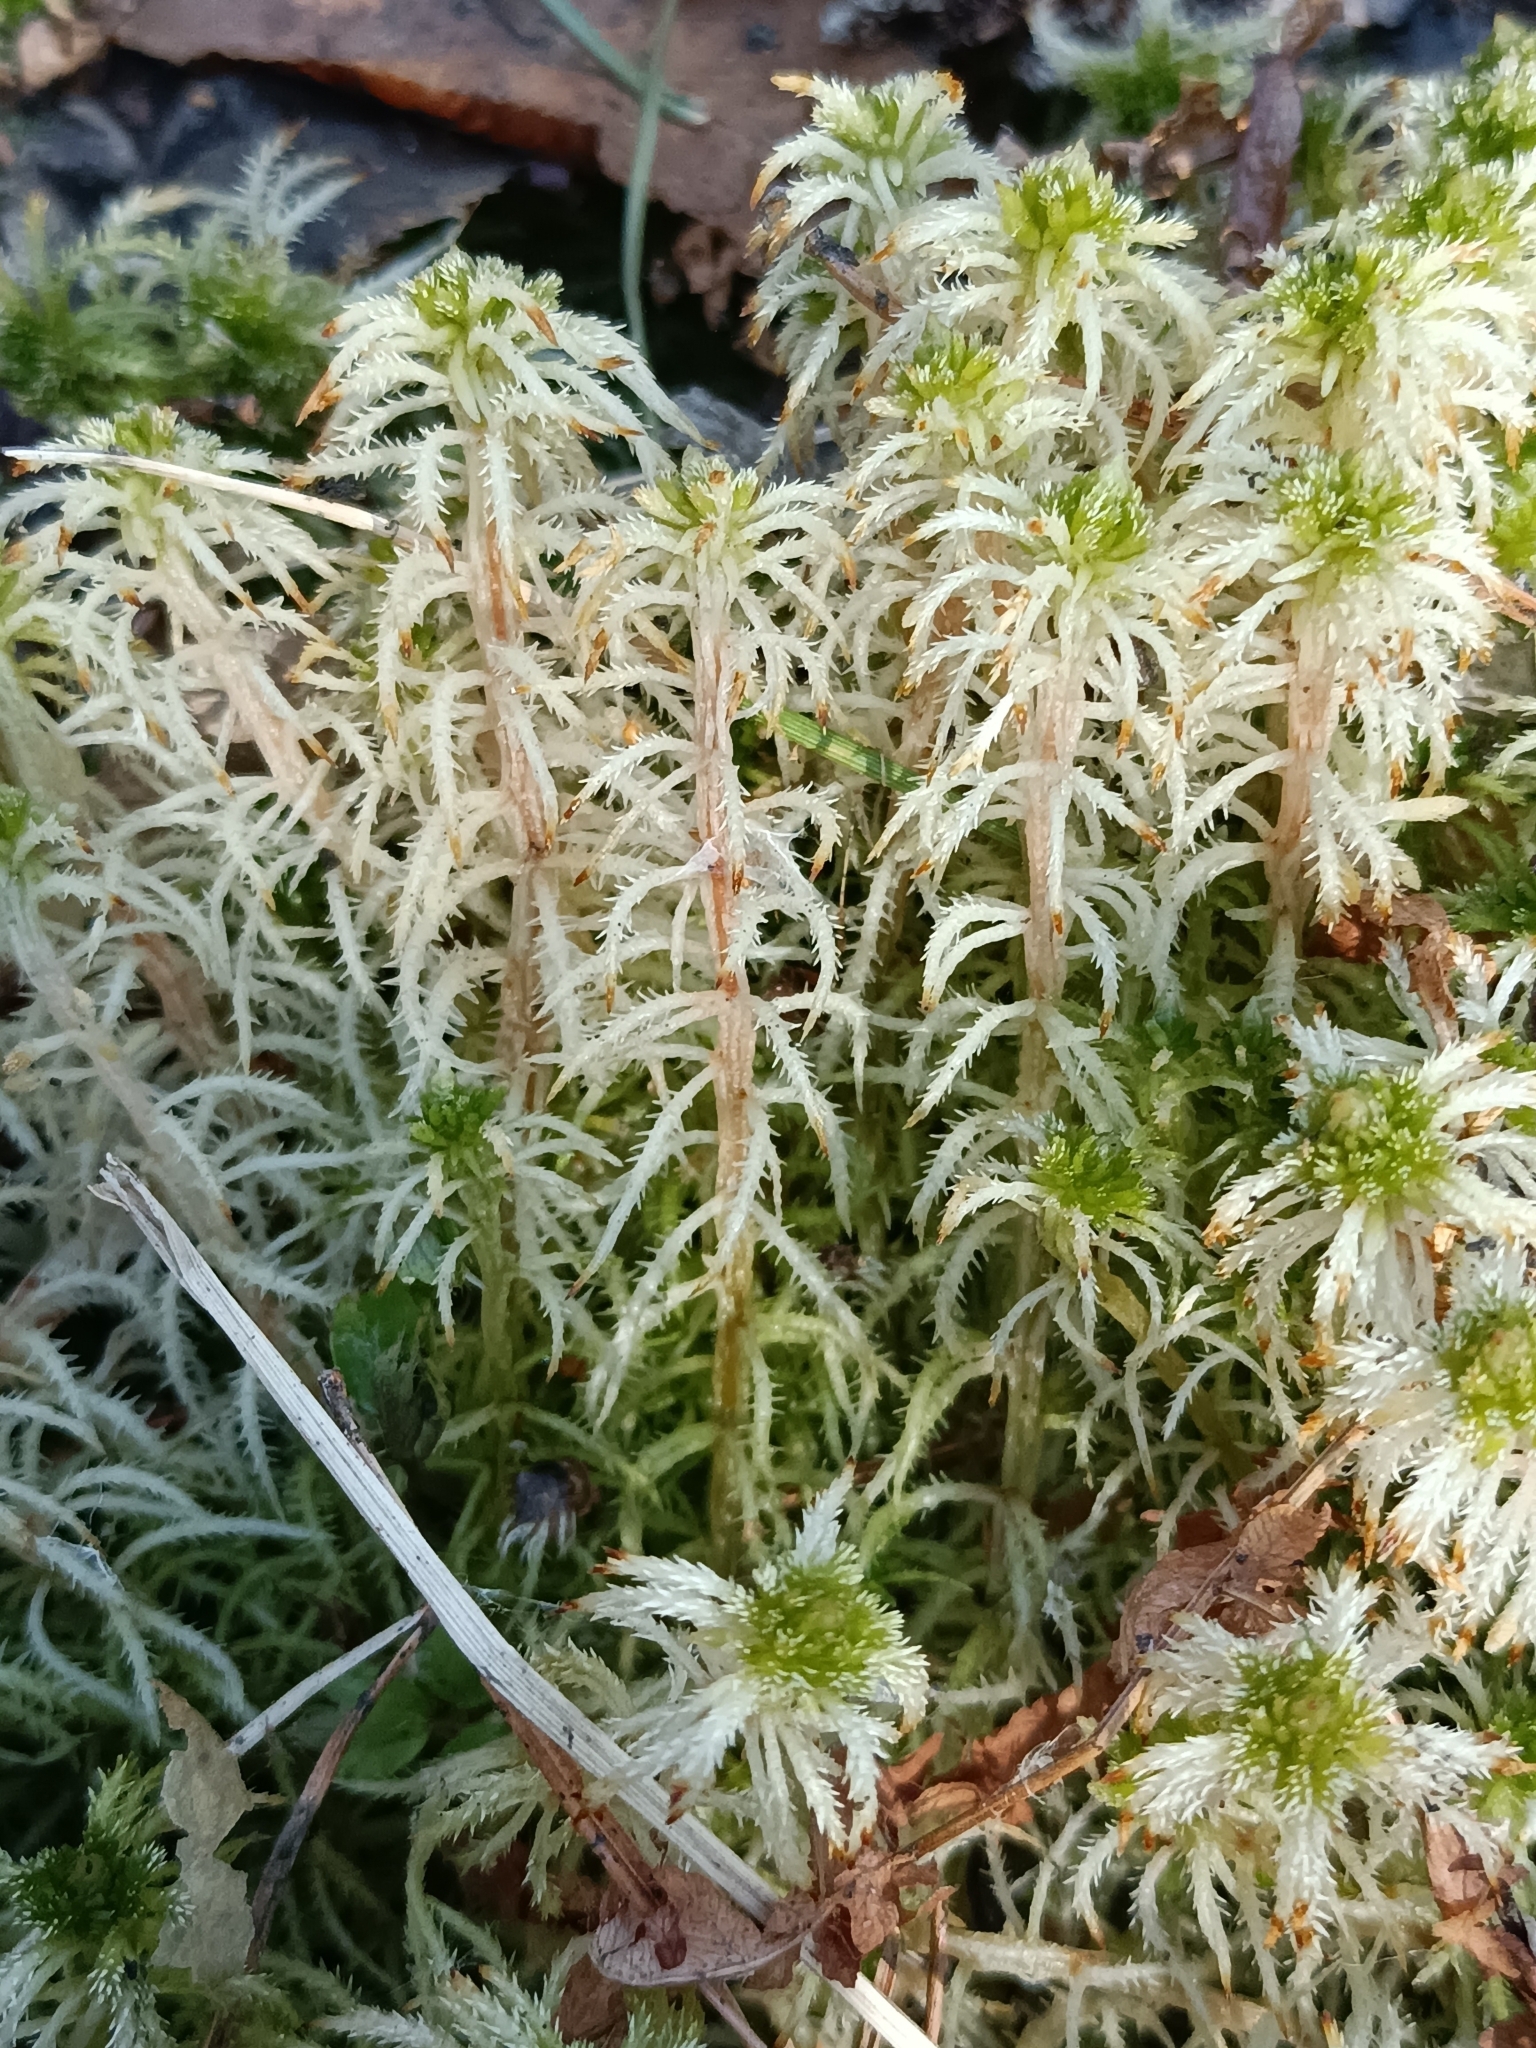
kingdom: Plantae
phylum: Bryophyta
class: Sphagnopsida
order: Sphagnales
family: Sphagnaceae
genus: Sphagnum
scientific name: Sphagnum squarrosum
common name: Shaggy peat moss
